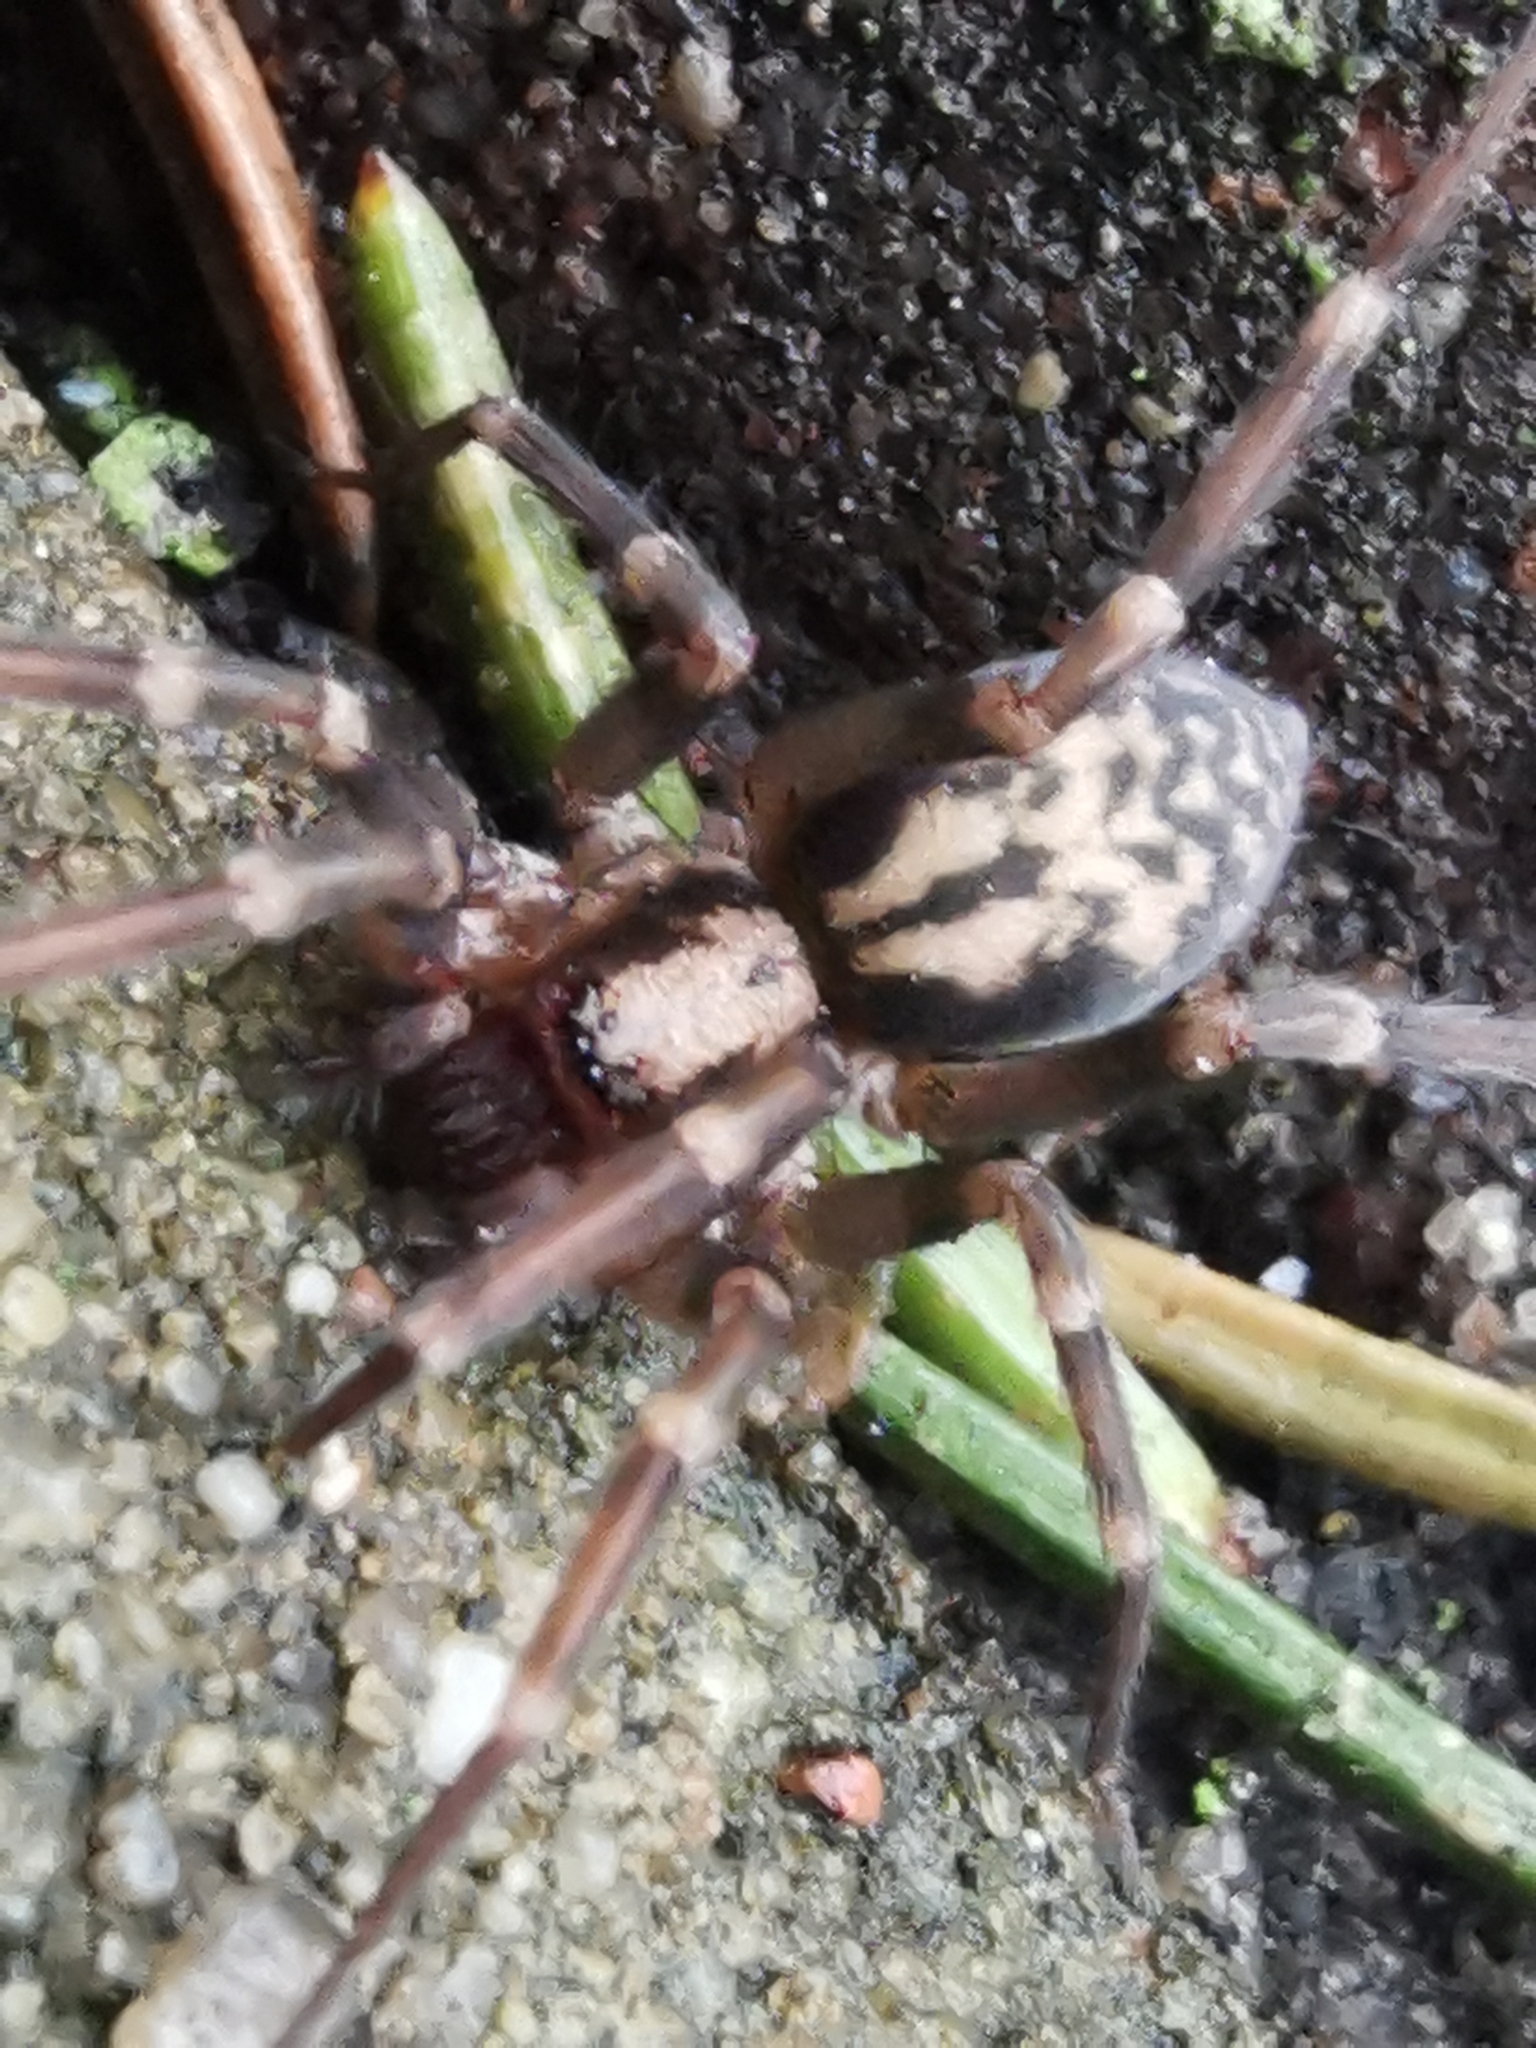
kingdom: Animalia
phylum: Arthropoda
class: Arachnida
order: Araneae
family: Liocranidae
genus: Liocranum
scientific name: Liocranum rupicola
